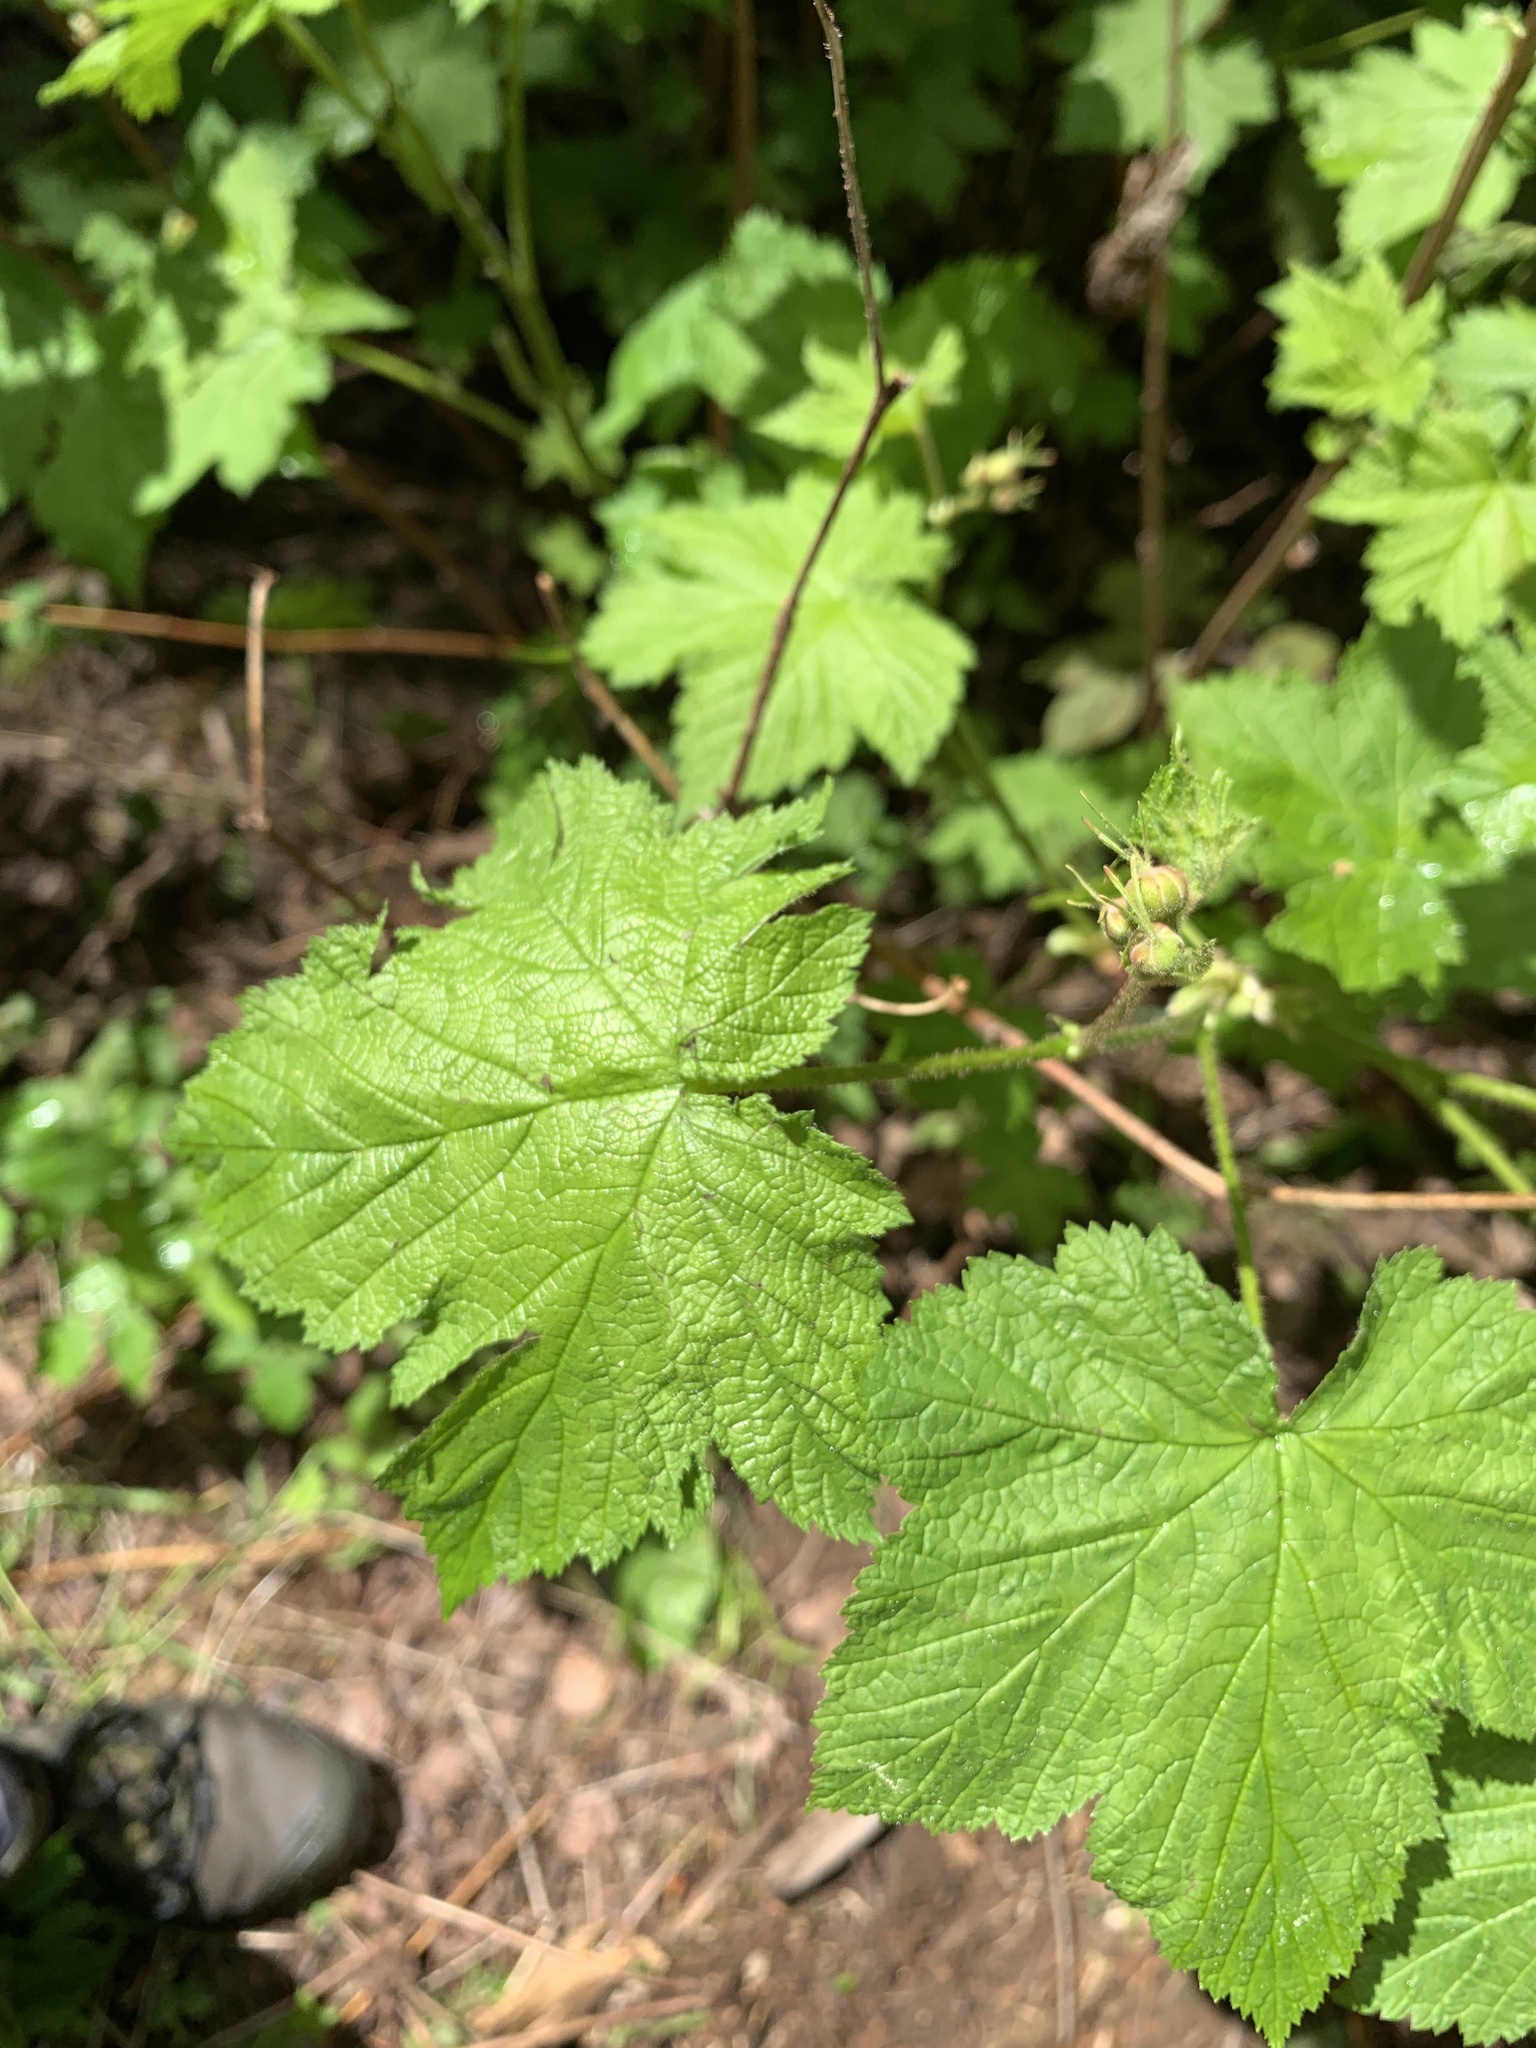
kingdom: Plantae
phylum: Tracheophyta
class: Magnoliopsida
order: Rosales
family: Rosaceae
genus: Rubus
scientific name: Rubus parviflorus
